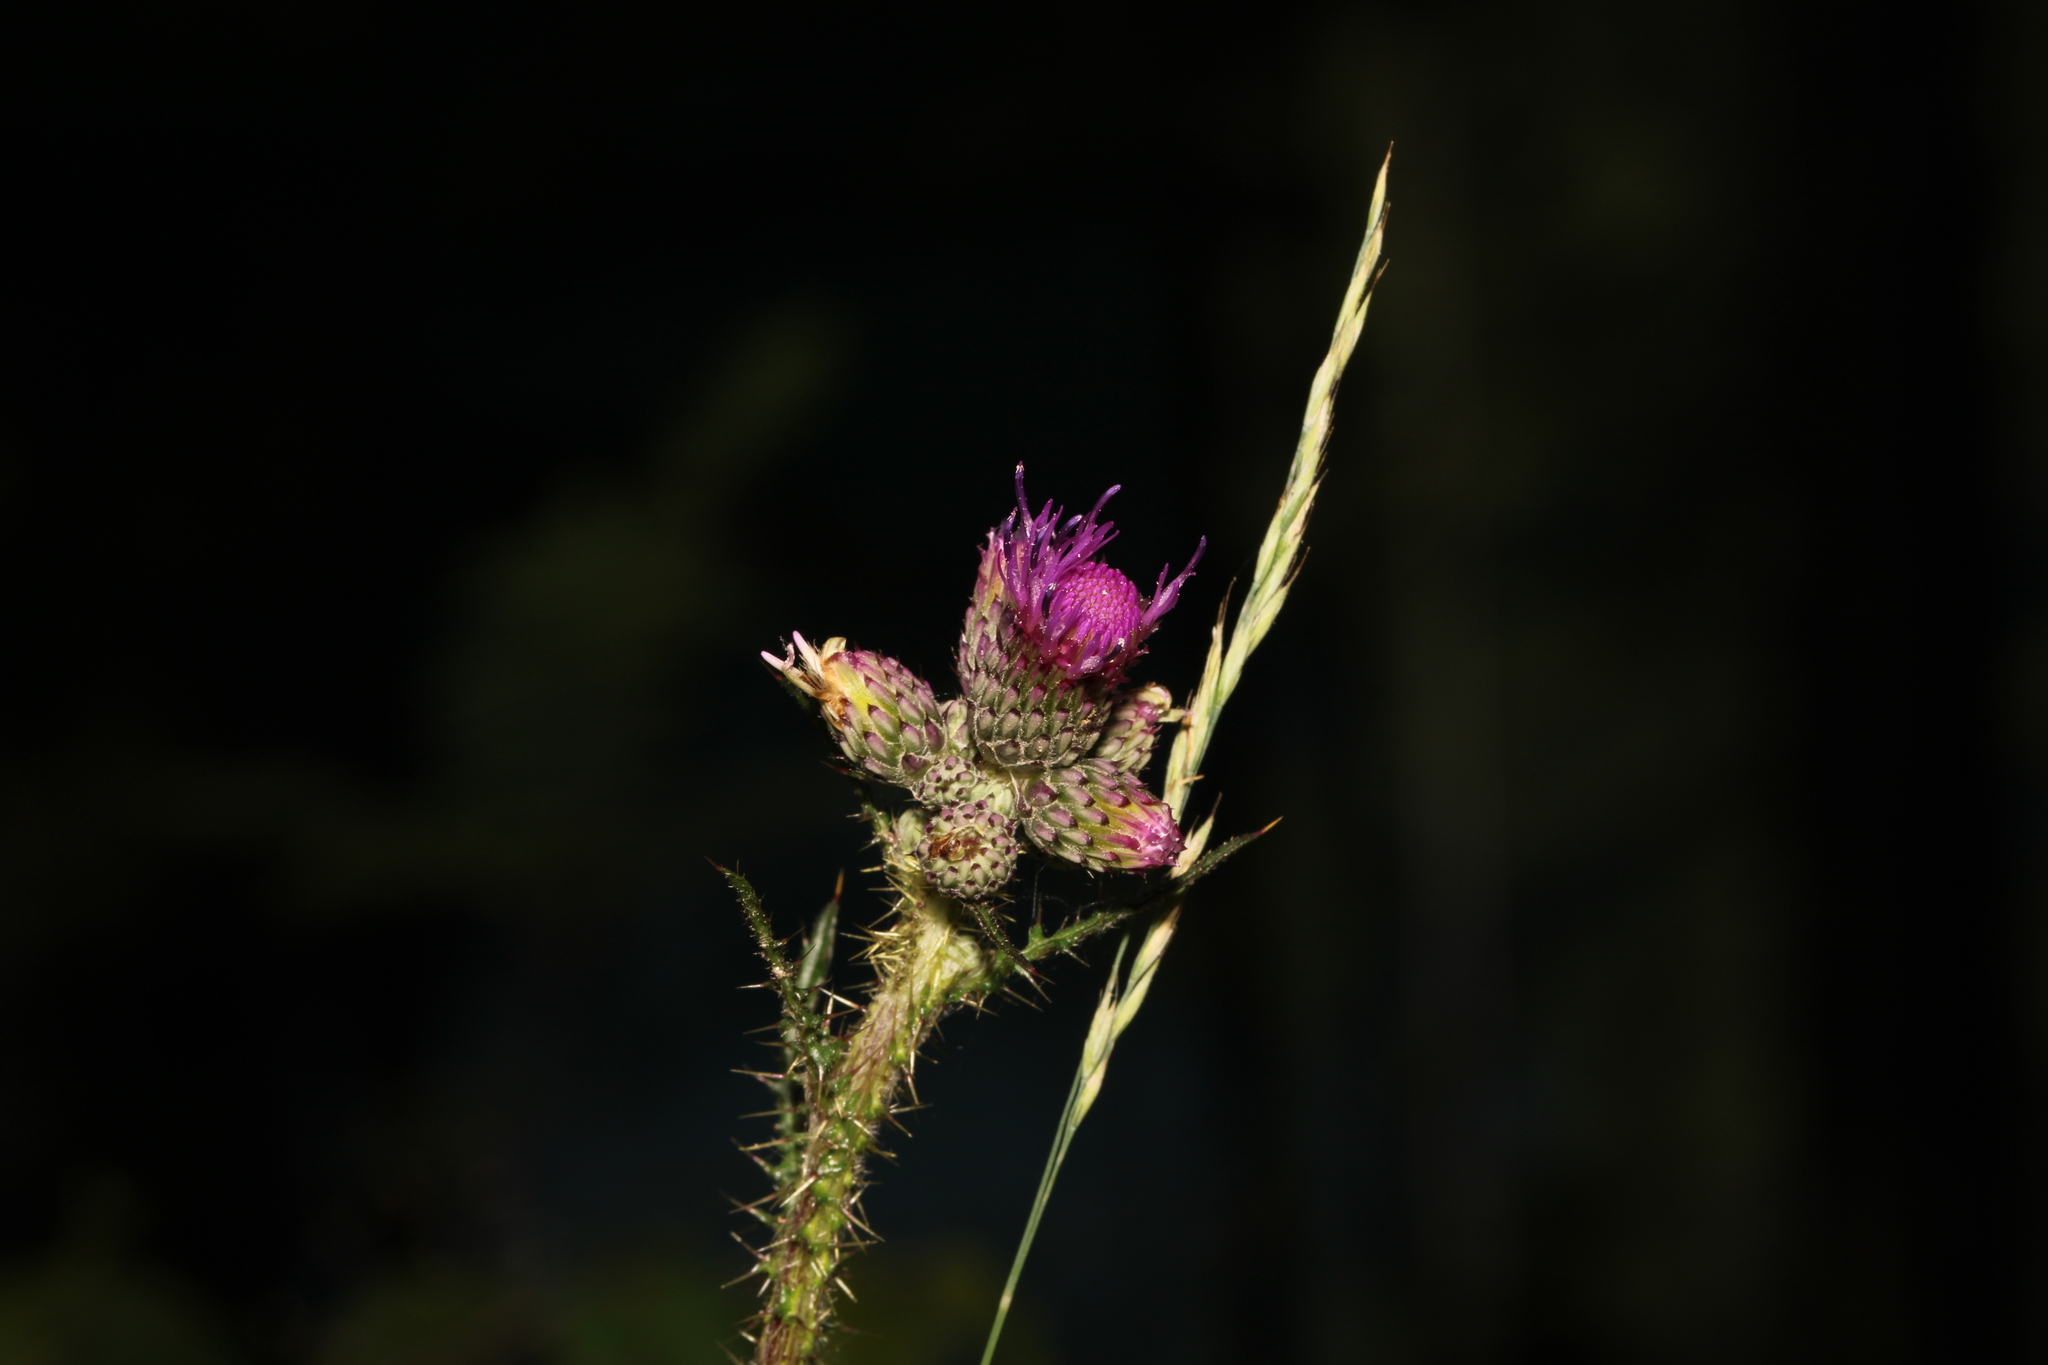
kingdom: Plantae
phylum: Tracheophyta
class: Magnoliopsida
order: Asterales
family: Asteraceae
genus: Cirsium
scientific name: Cirsium palustre
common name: Marsh thistle
